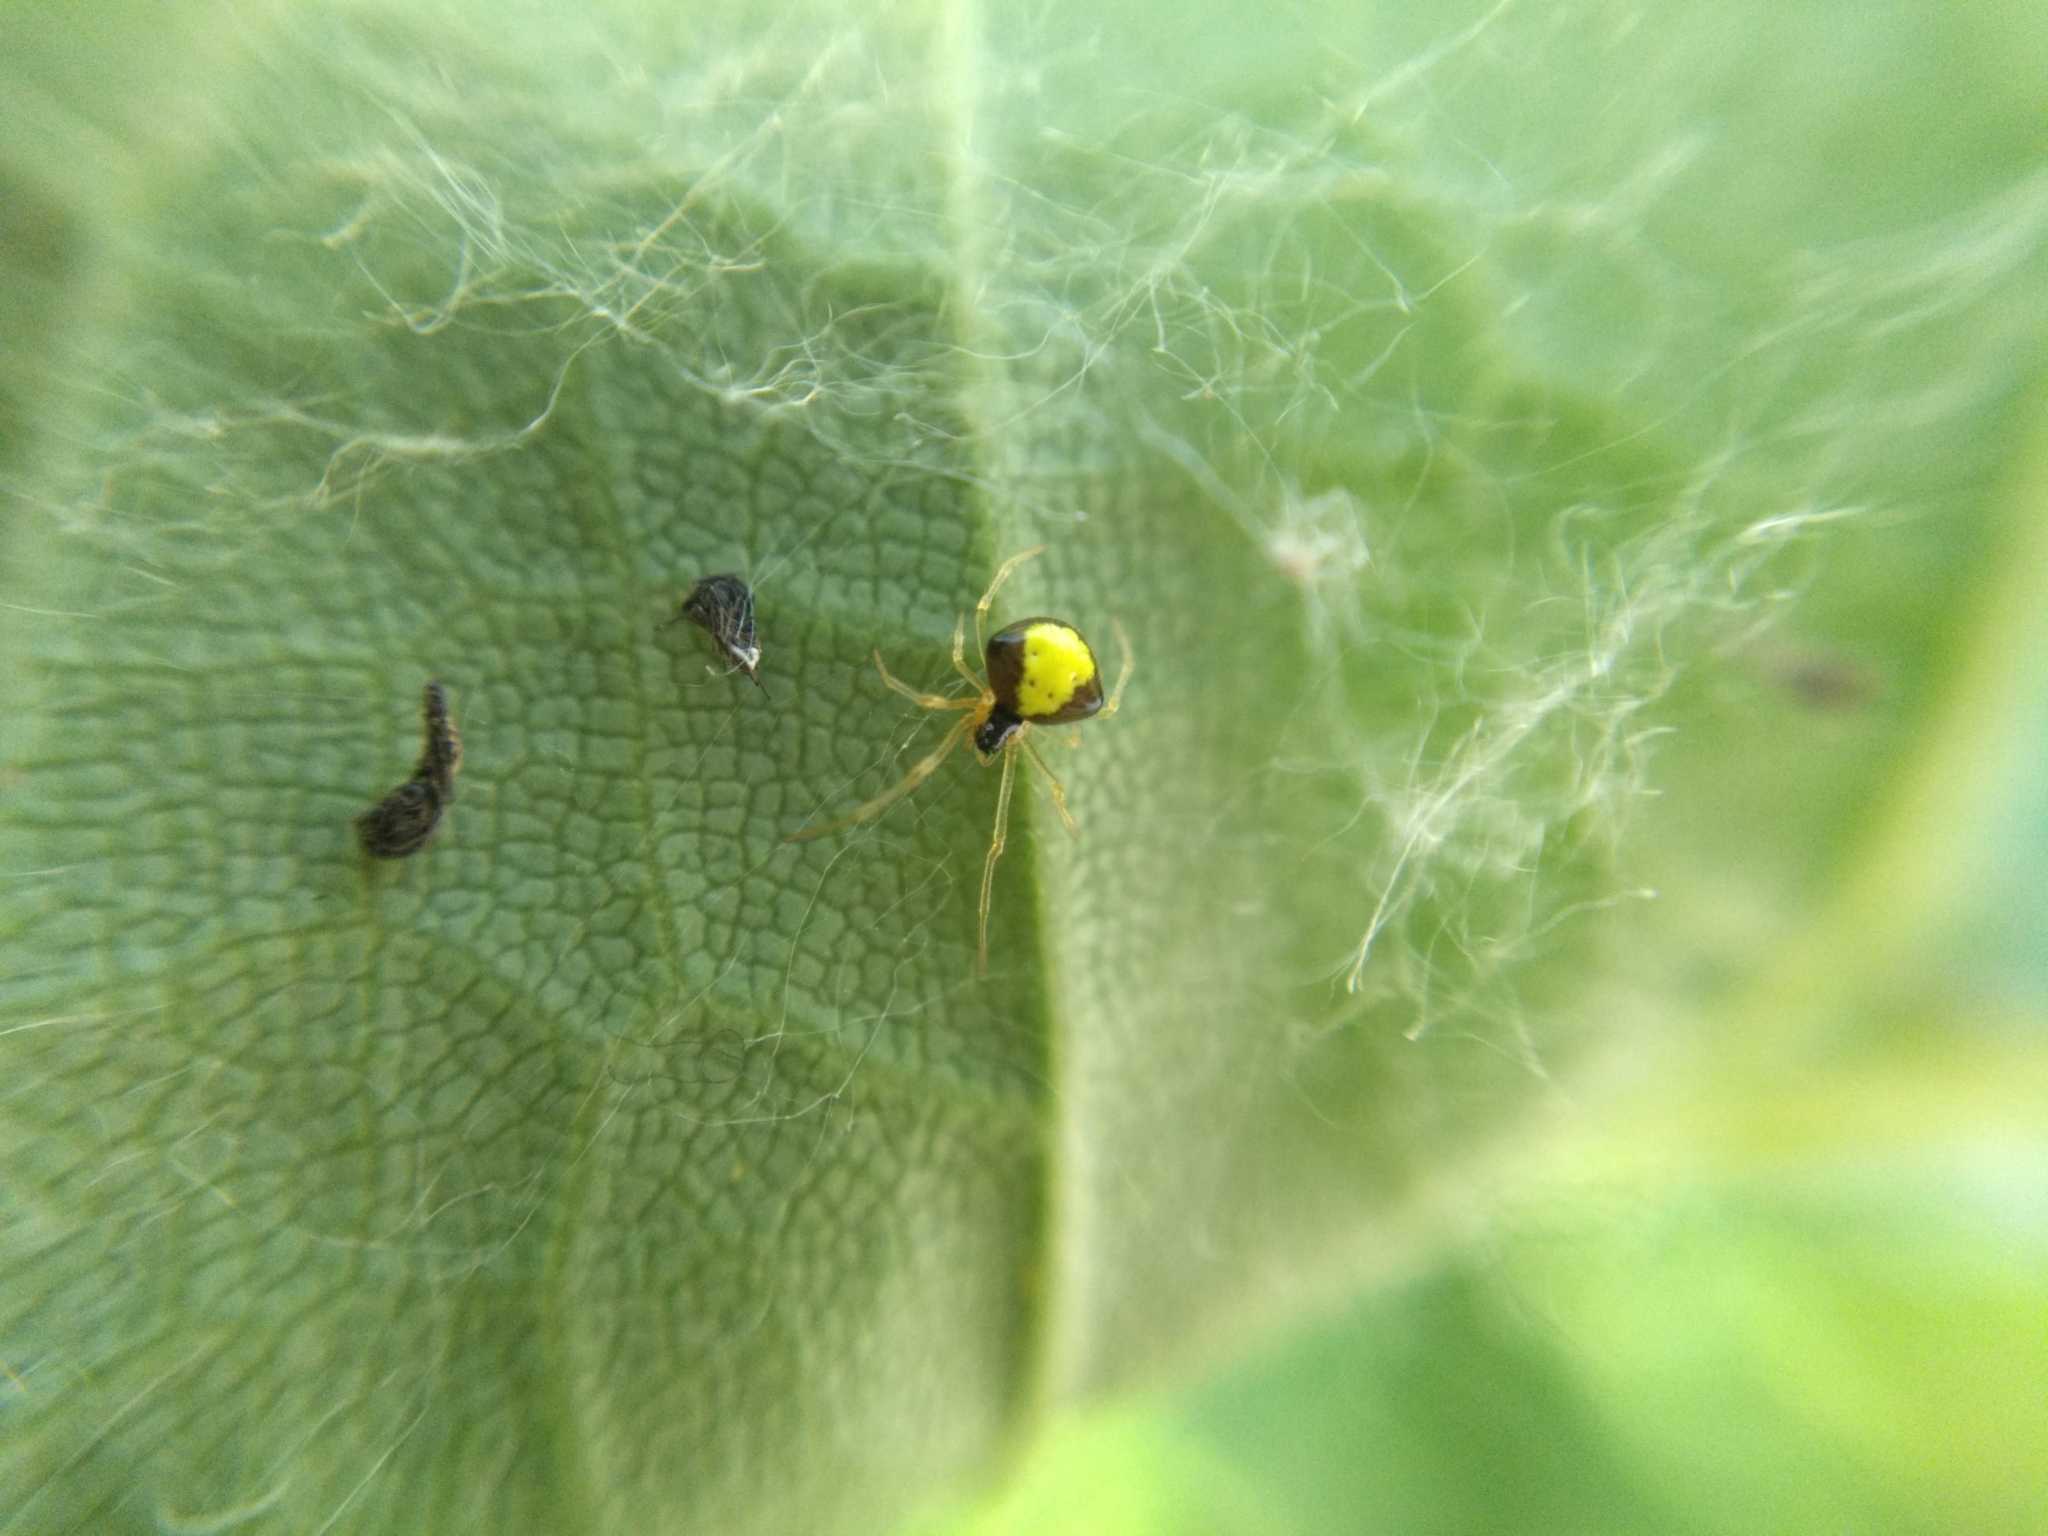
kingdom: Animalia
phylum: Arthropoda
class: Arachnida
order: Araneae
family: Theridiidae
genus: Theridula
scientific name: Theridula emertoni
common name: Emerton's bitubercled cobweaver
